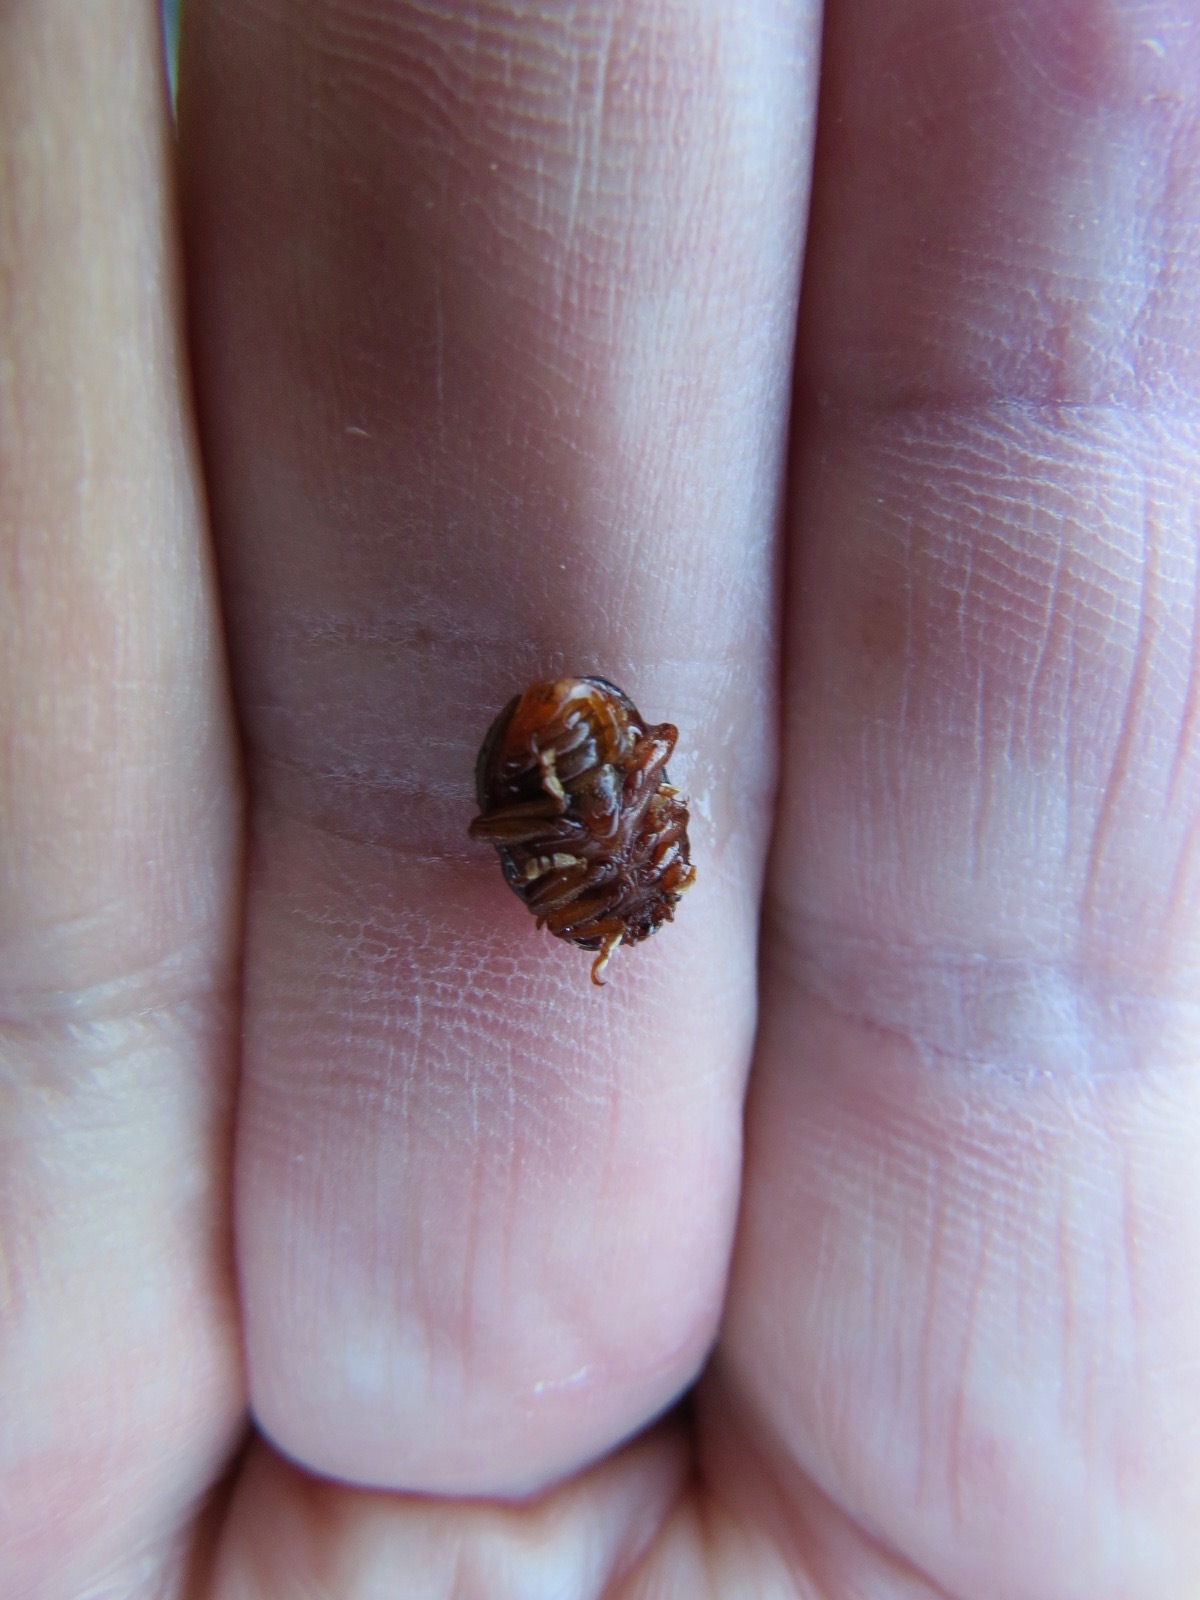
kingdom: Animalia
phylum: Arthropoda
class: Insecta
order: Coleoptera
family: Chrysomelidae
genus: Chrysolina
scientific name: Chrysolina bankii
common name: Leaf beetle
